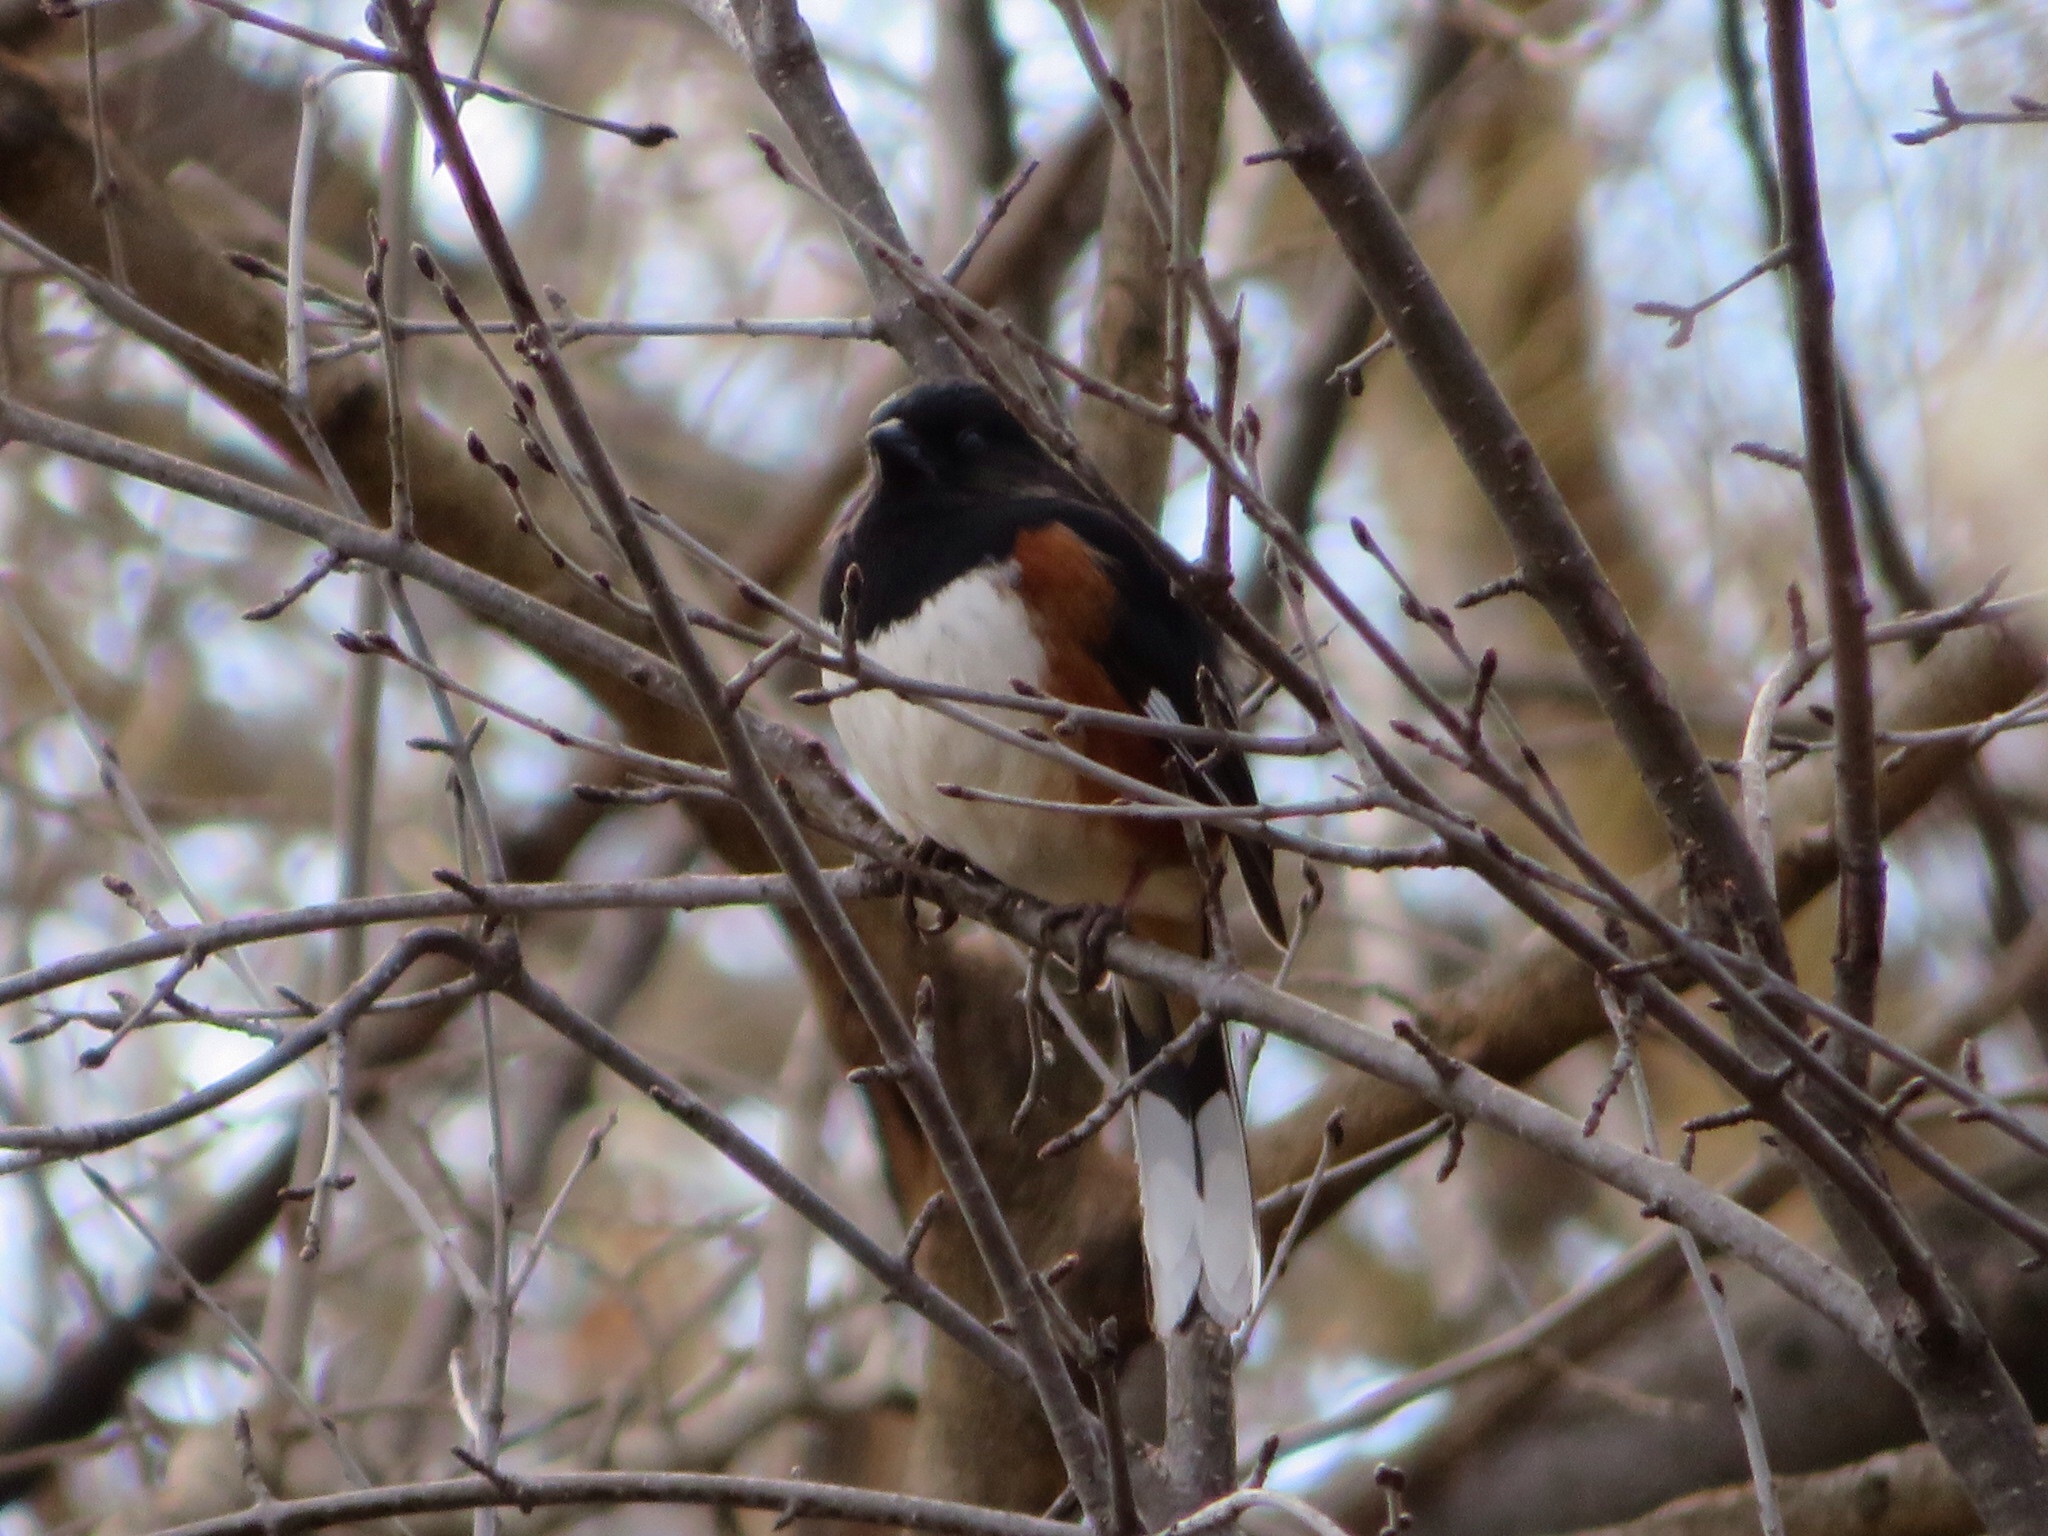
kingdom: Animalia
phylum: Chordata
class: Aves
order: Passeriformes
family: Passerellidae
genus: Pipilo
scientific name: Pipilo erythrophthalmus
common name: Eastern towhee
